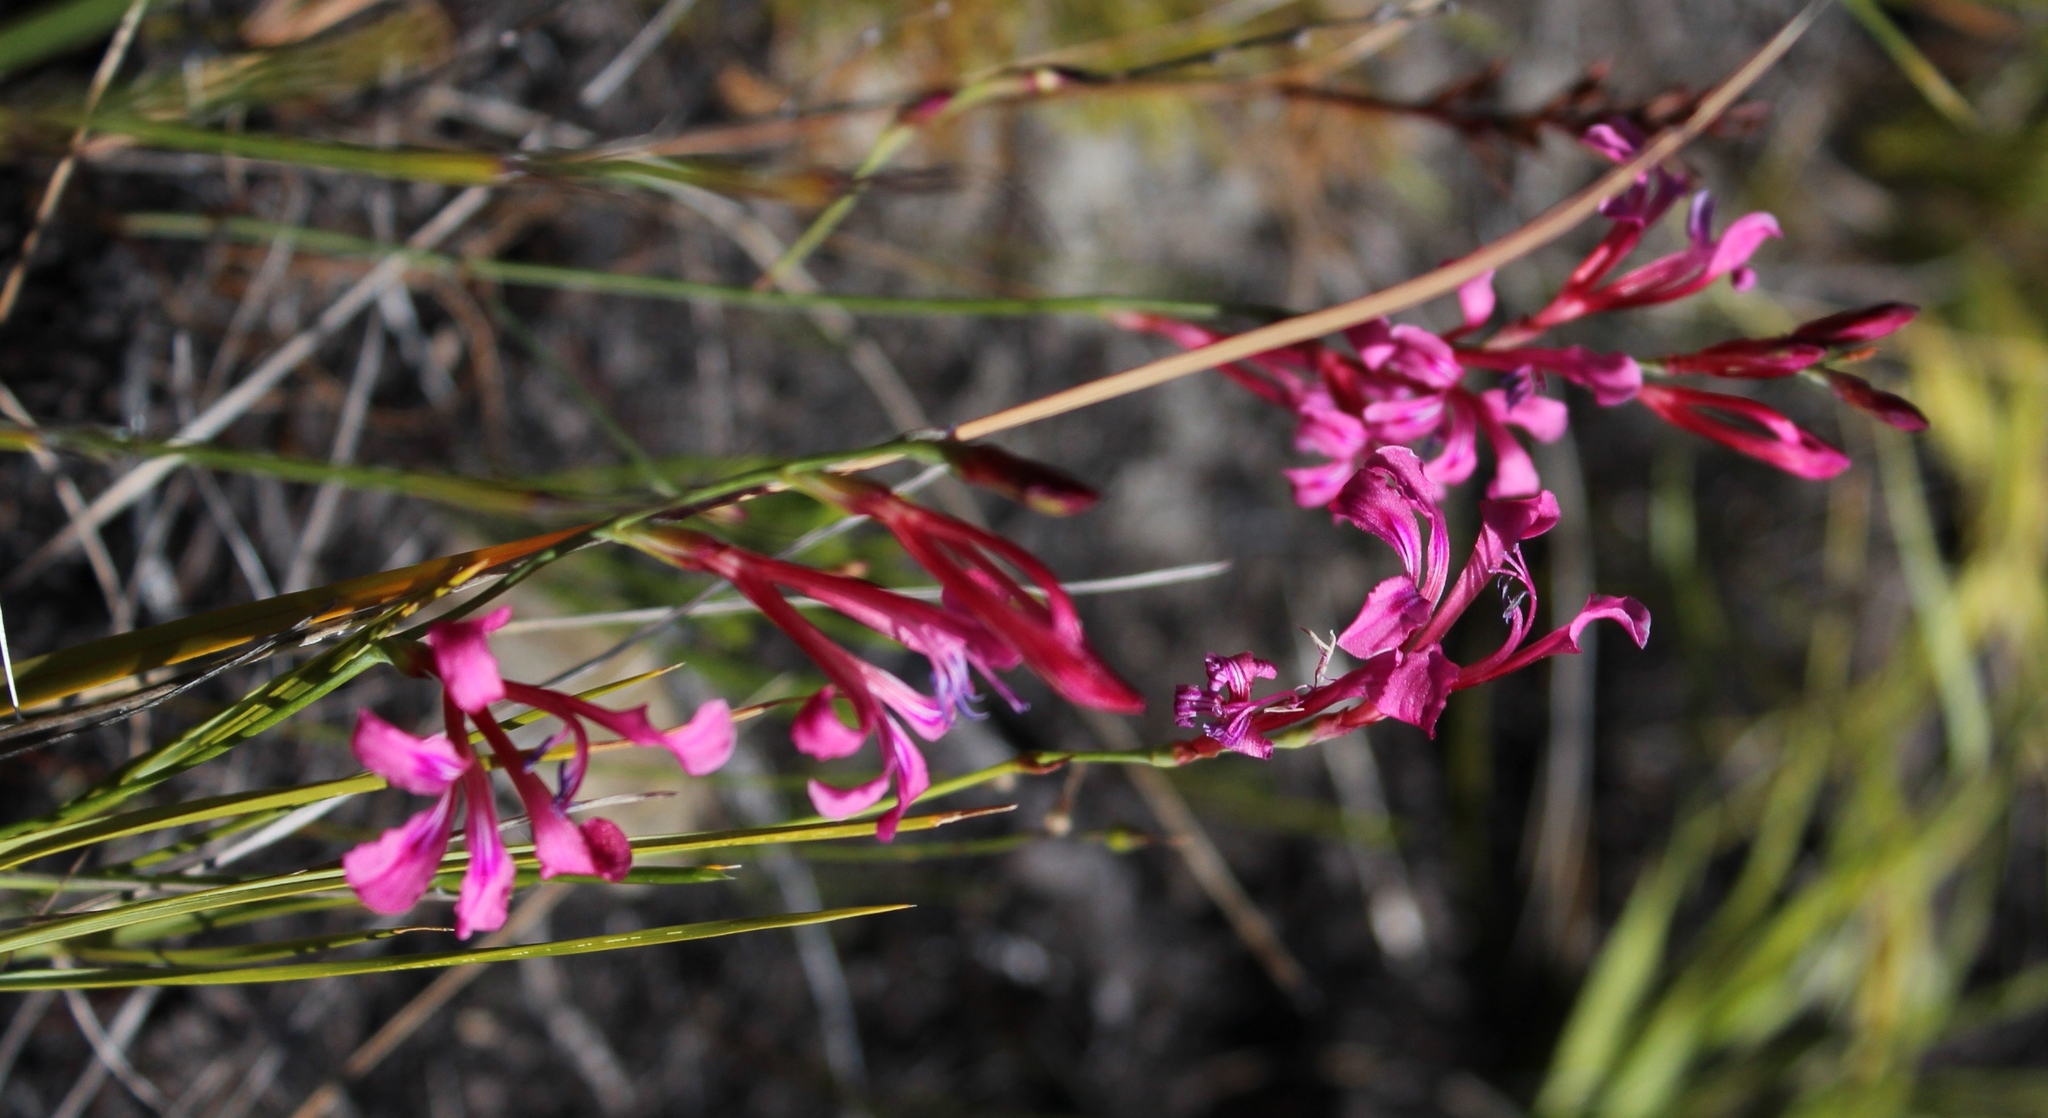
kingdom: Plantae
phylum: Tracheophyta
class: Liliopsida
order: Asparagales
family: Iridaceae
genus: Tritoniopsis
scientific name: Tritoniopsis ramosa
